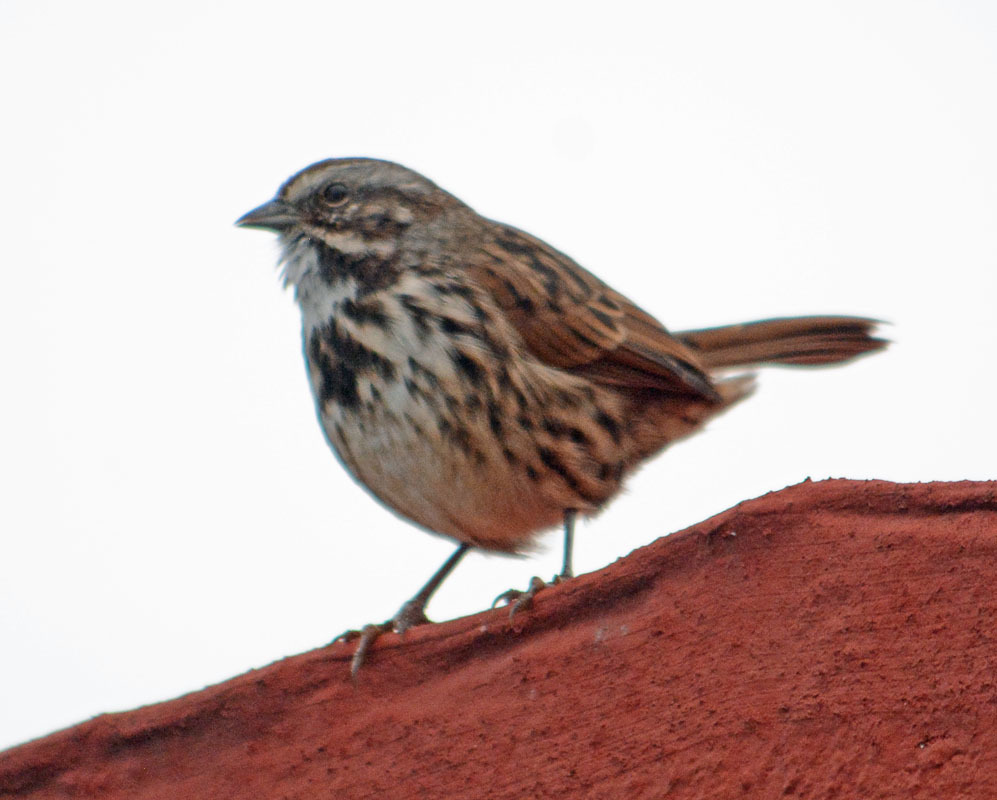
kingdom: Animalia
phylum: Chordata
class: Aves
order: Passeriformes
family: Passerellidae
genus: Melospiza
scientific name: Melospiza melodia
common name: Song sparrow
